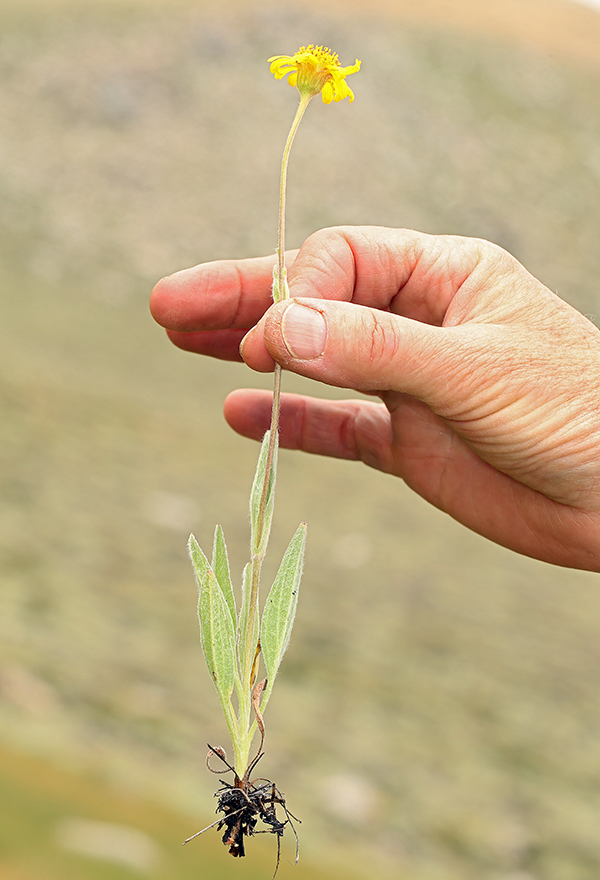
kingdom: Plantae
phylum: Tracheophyta
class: Magnoliopsida
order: Asterales
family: Asteraceae
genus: Arnica
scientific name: Arnica parryi
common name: Parry's arnica
